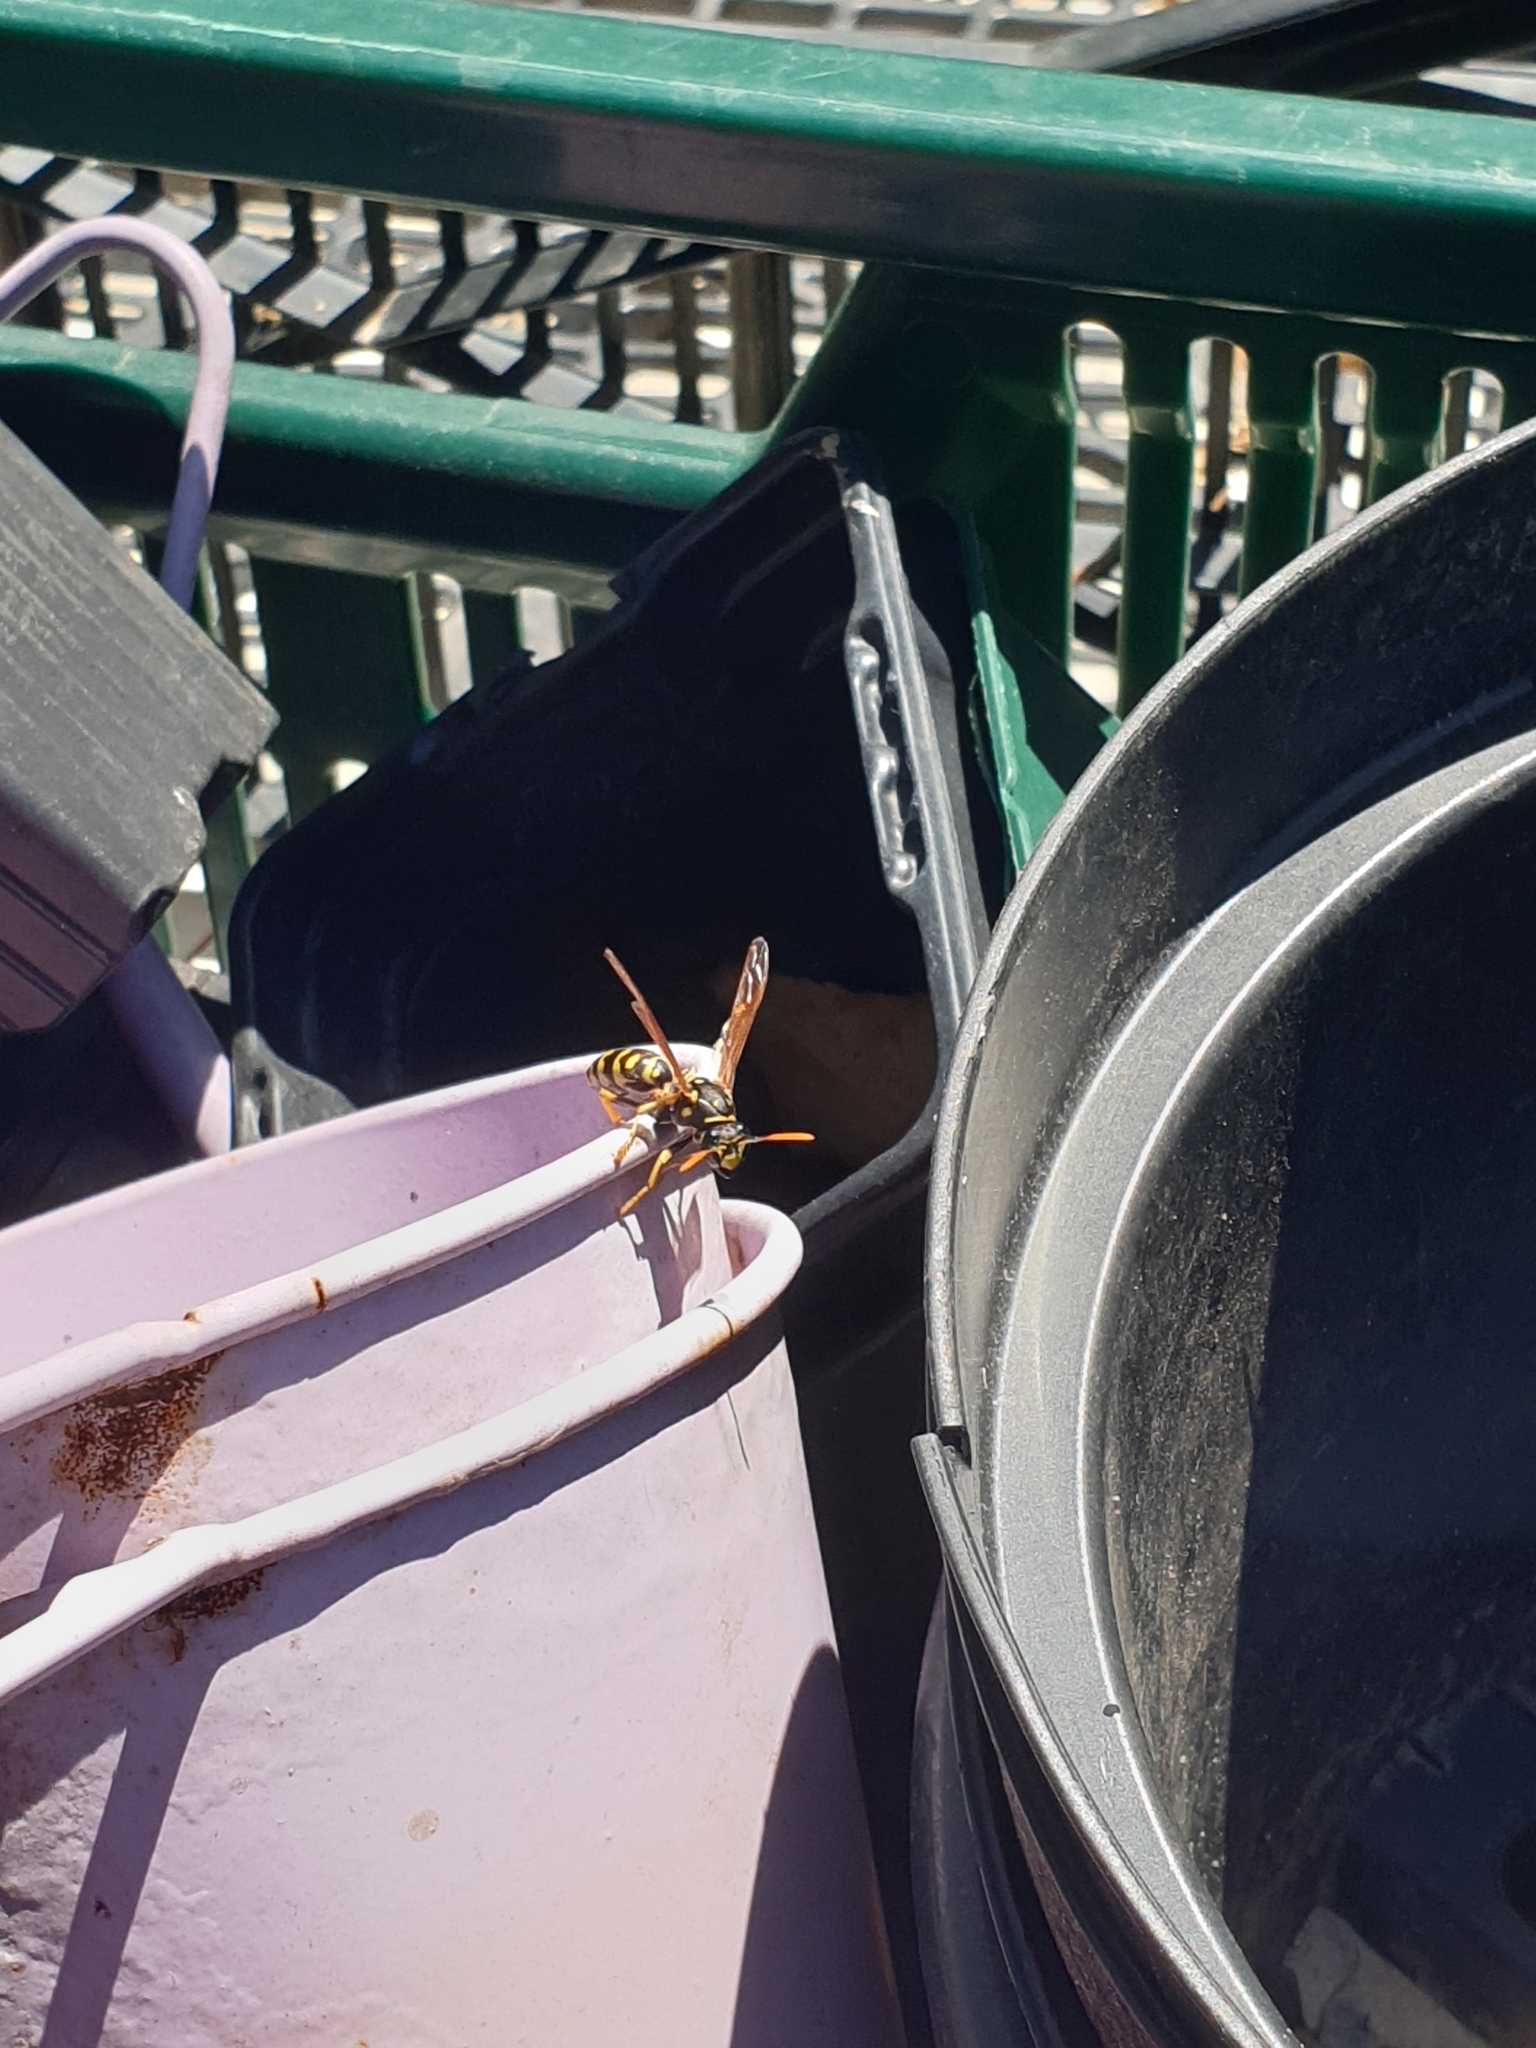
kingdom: Animalia
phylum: Arthropoda
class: Insecta
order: Hymenoptera
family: Eumenidae
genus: Polistes
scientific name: Polistes dominula
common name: Paper wasp
